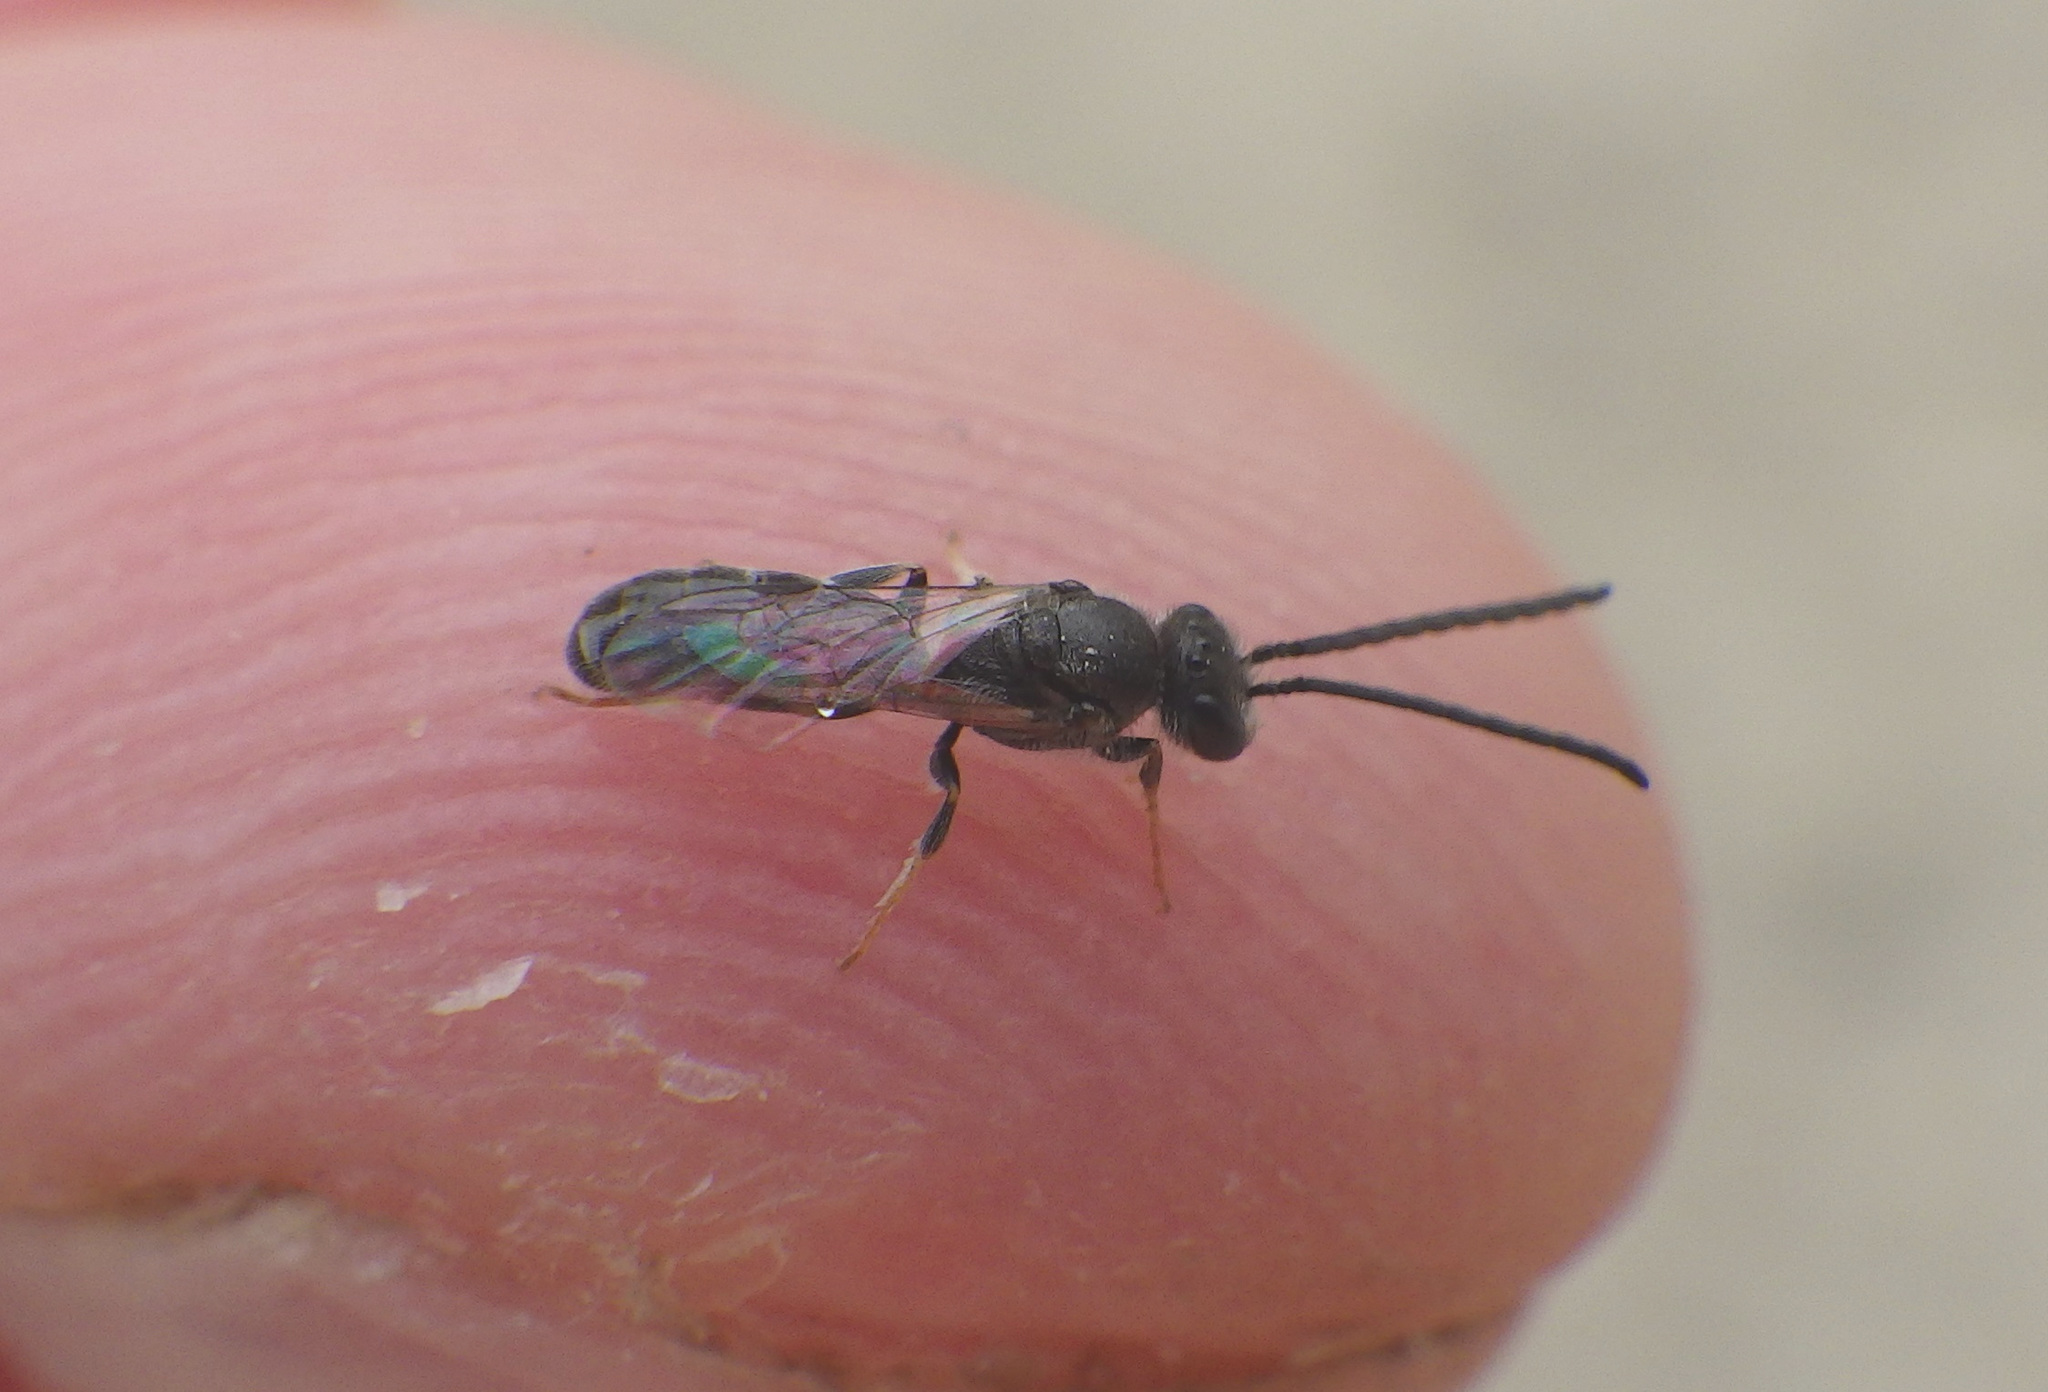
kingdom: Animalia
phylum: Arthropoda
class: Insecta
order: Hymenoptera
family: Halictidae
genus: Lasioglossum
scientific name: Lasioglossum
